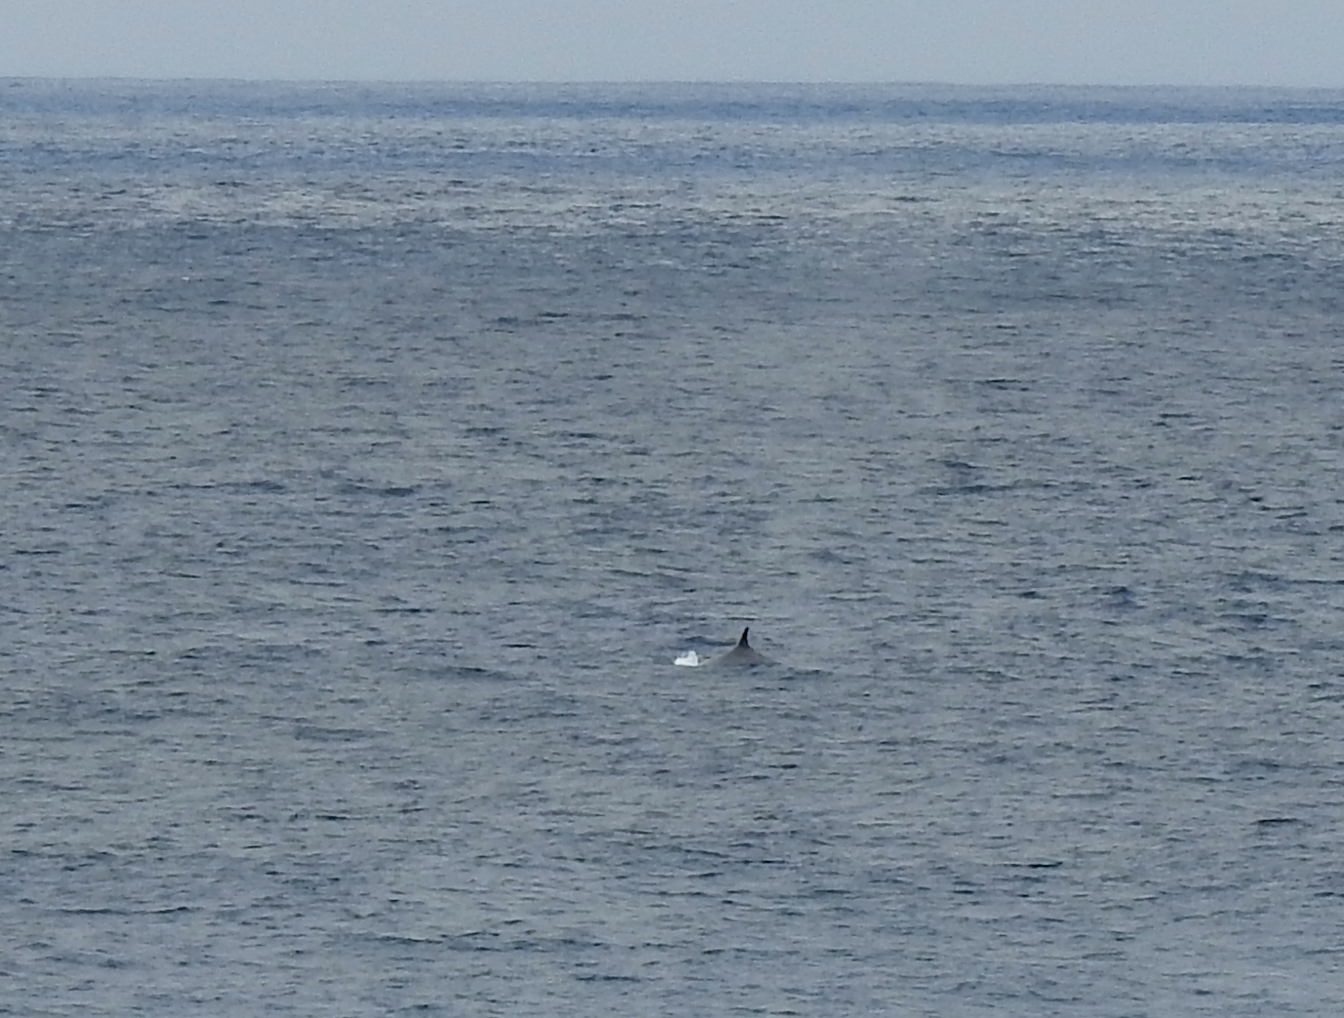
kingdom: Animalia
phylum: Chordata
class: Mammalia
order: Cetacea
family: Balaenopteridae
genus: Balaenoptera
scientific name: Balaenoptera physalus
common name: Fin whale
